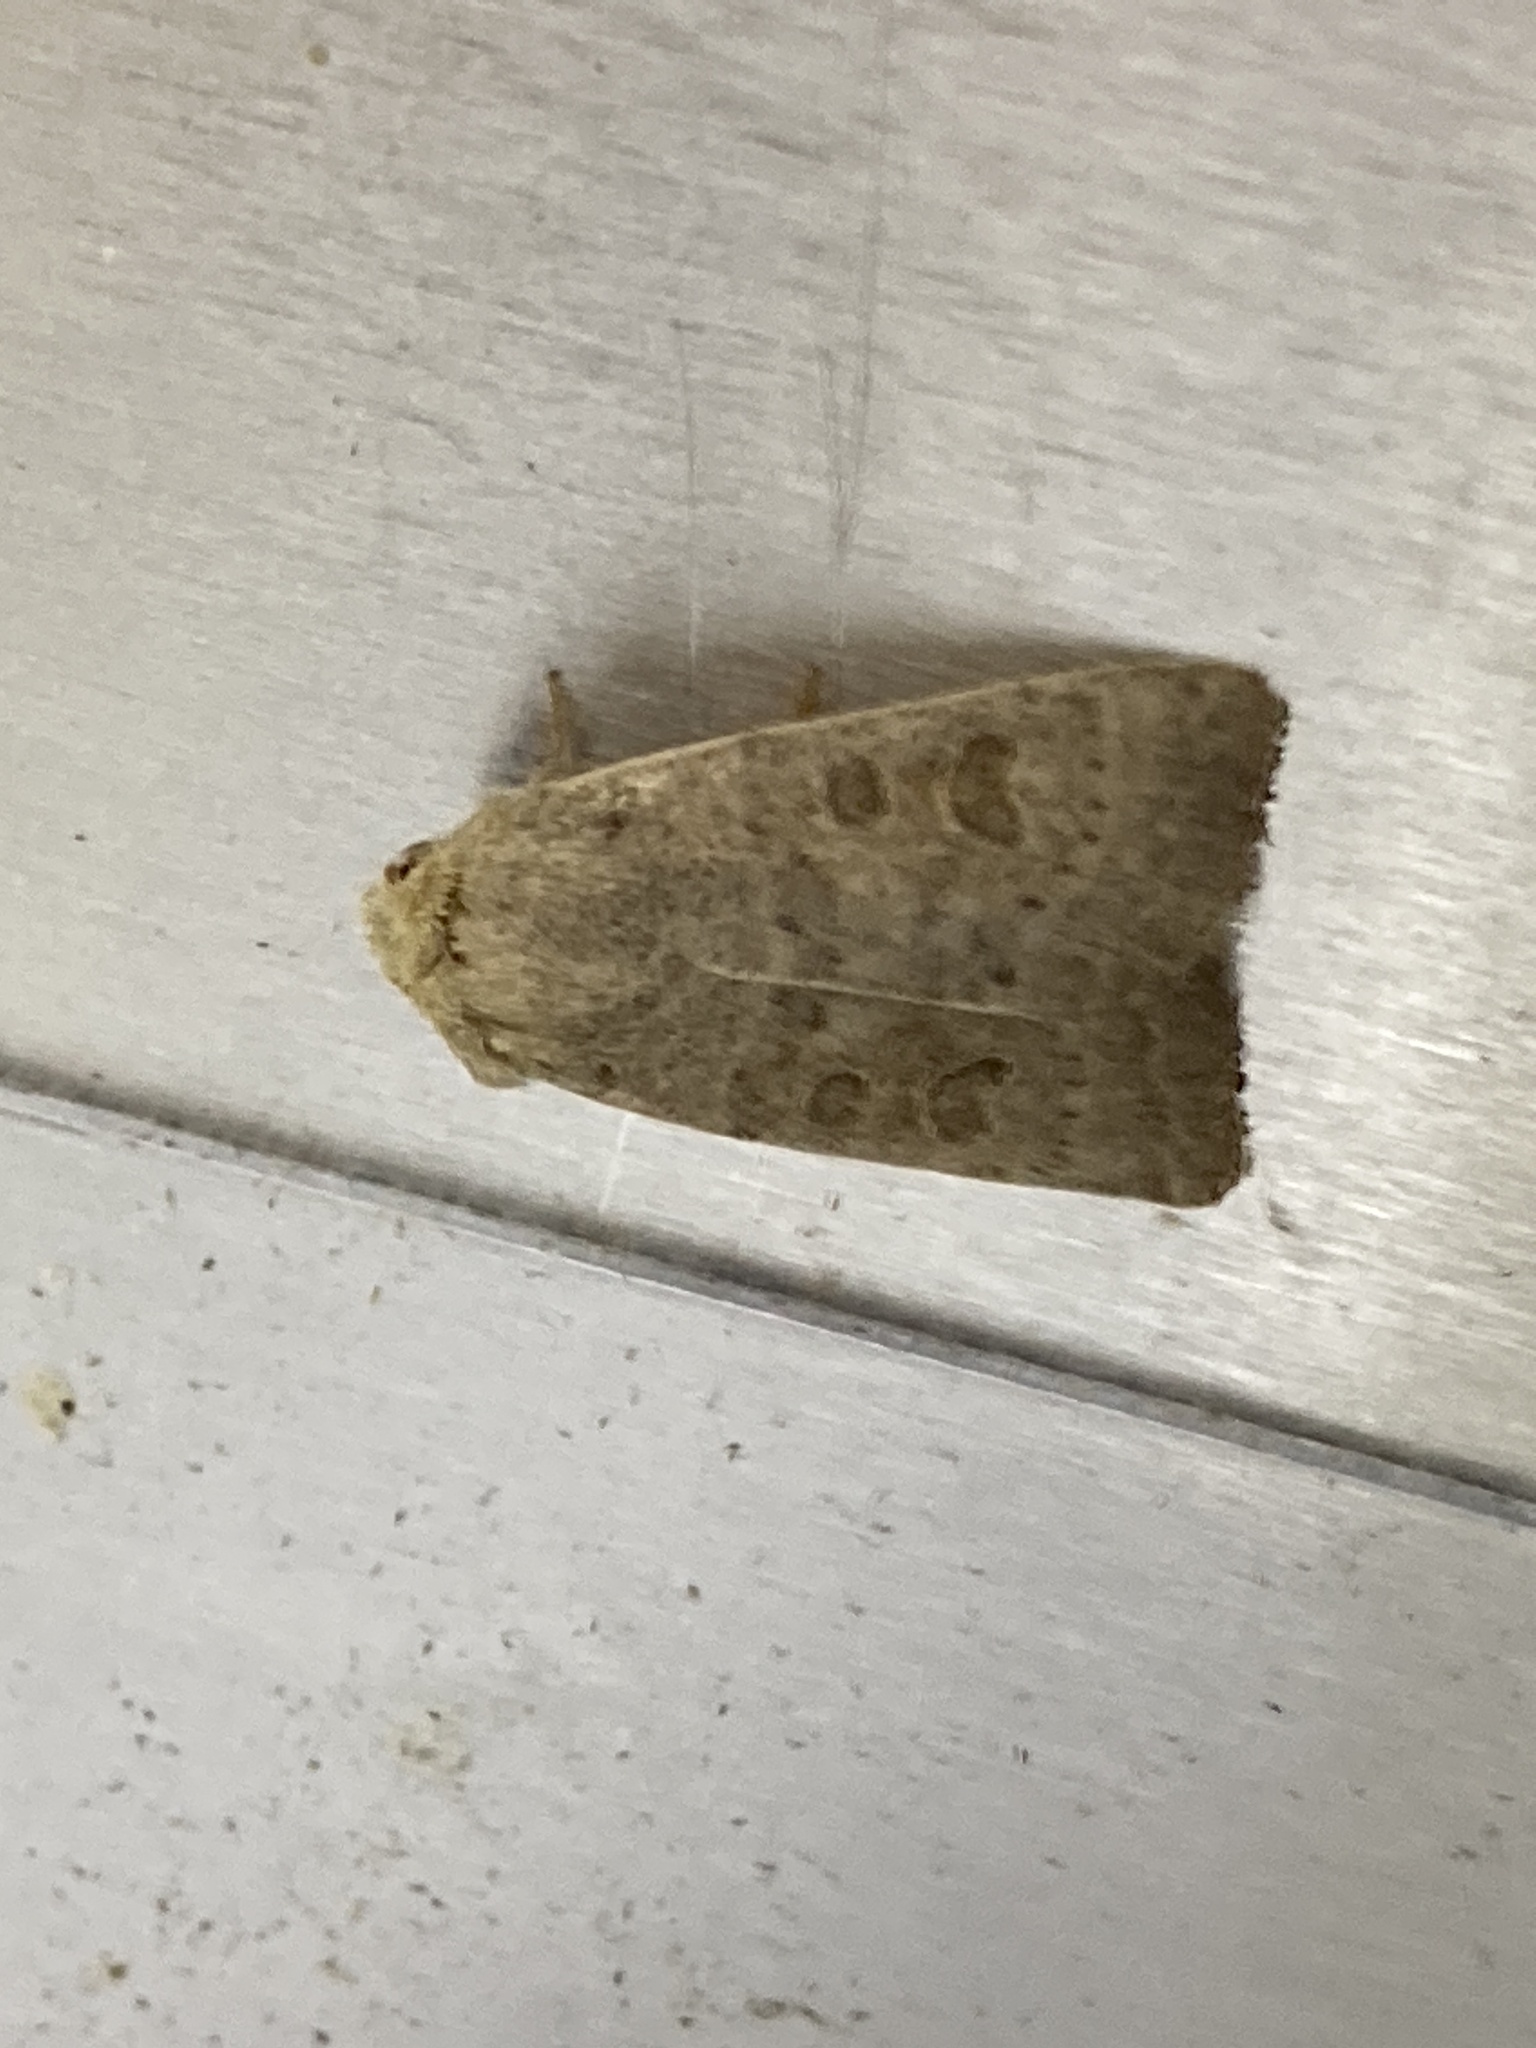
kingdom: Animalia
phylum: Arthropoda
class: Insecta
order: Lepidoptera
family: Noctuidae
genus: Hoplodrina
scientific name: Hoplodrina ambigua
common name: Vine's rustic
